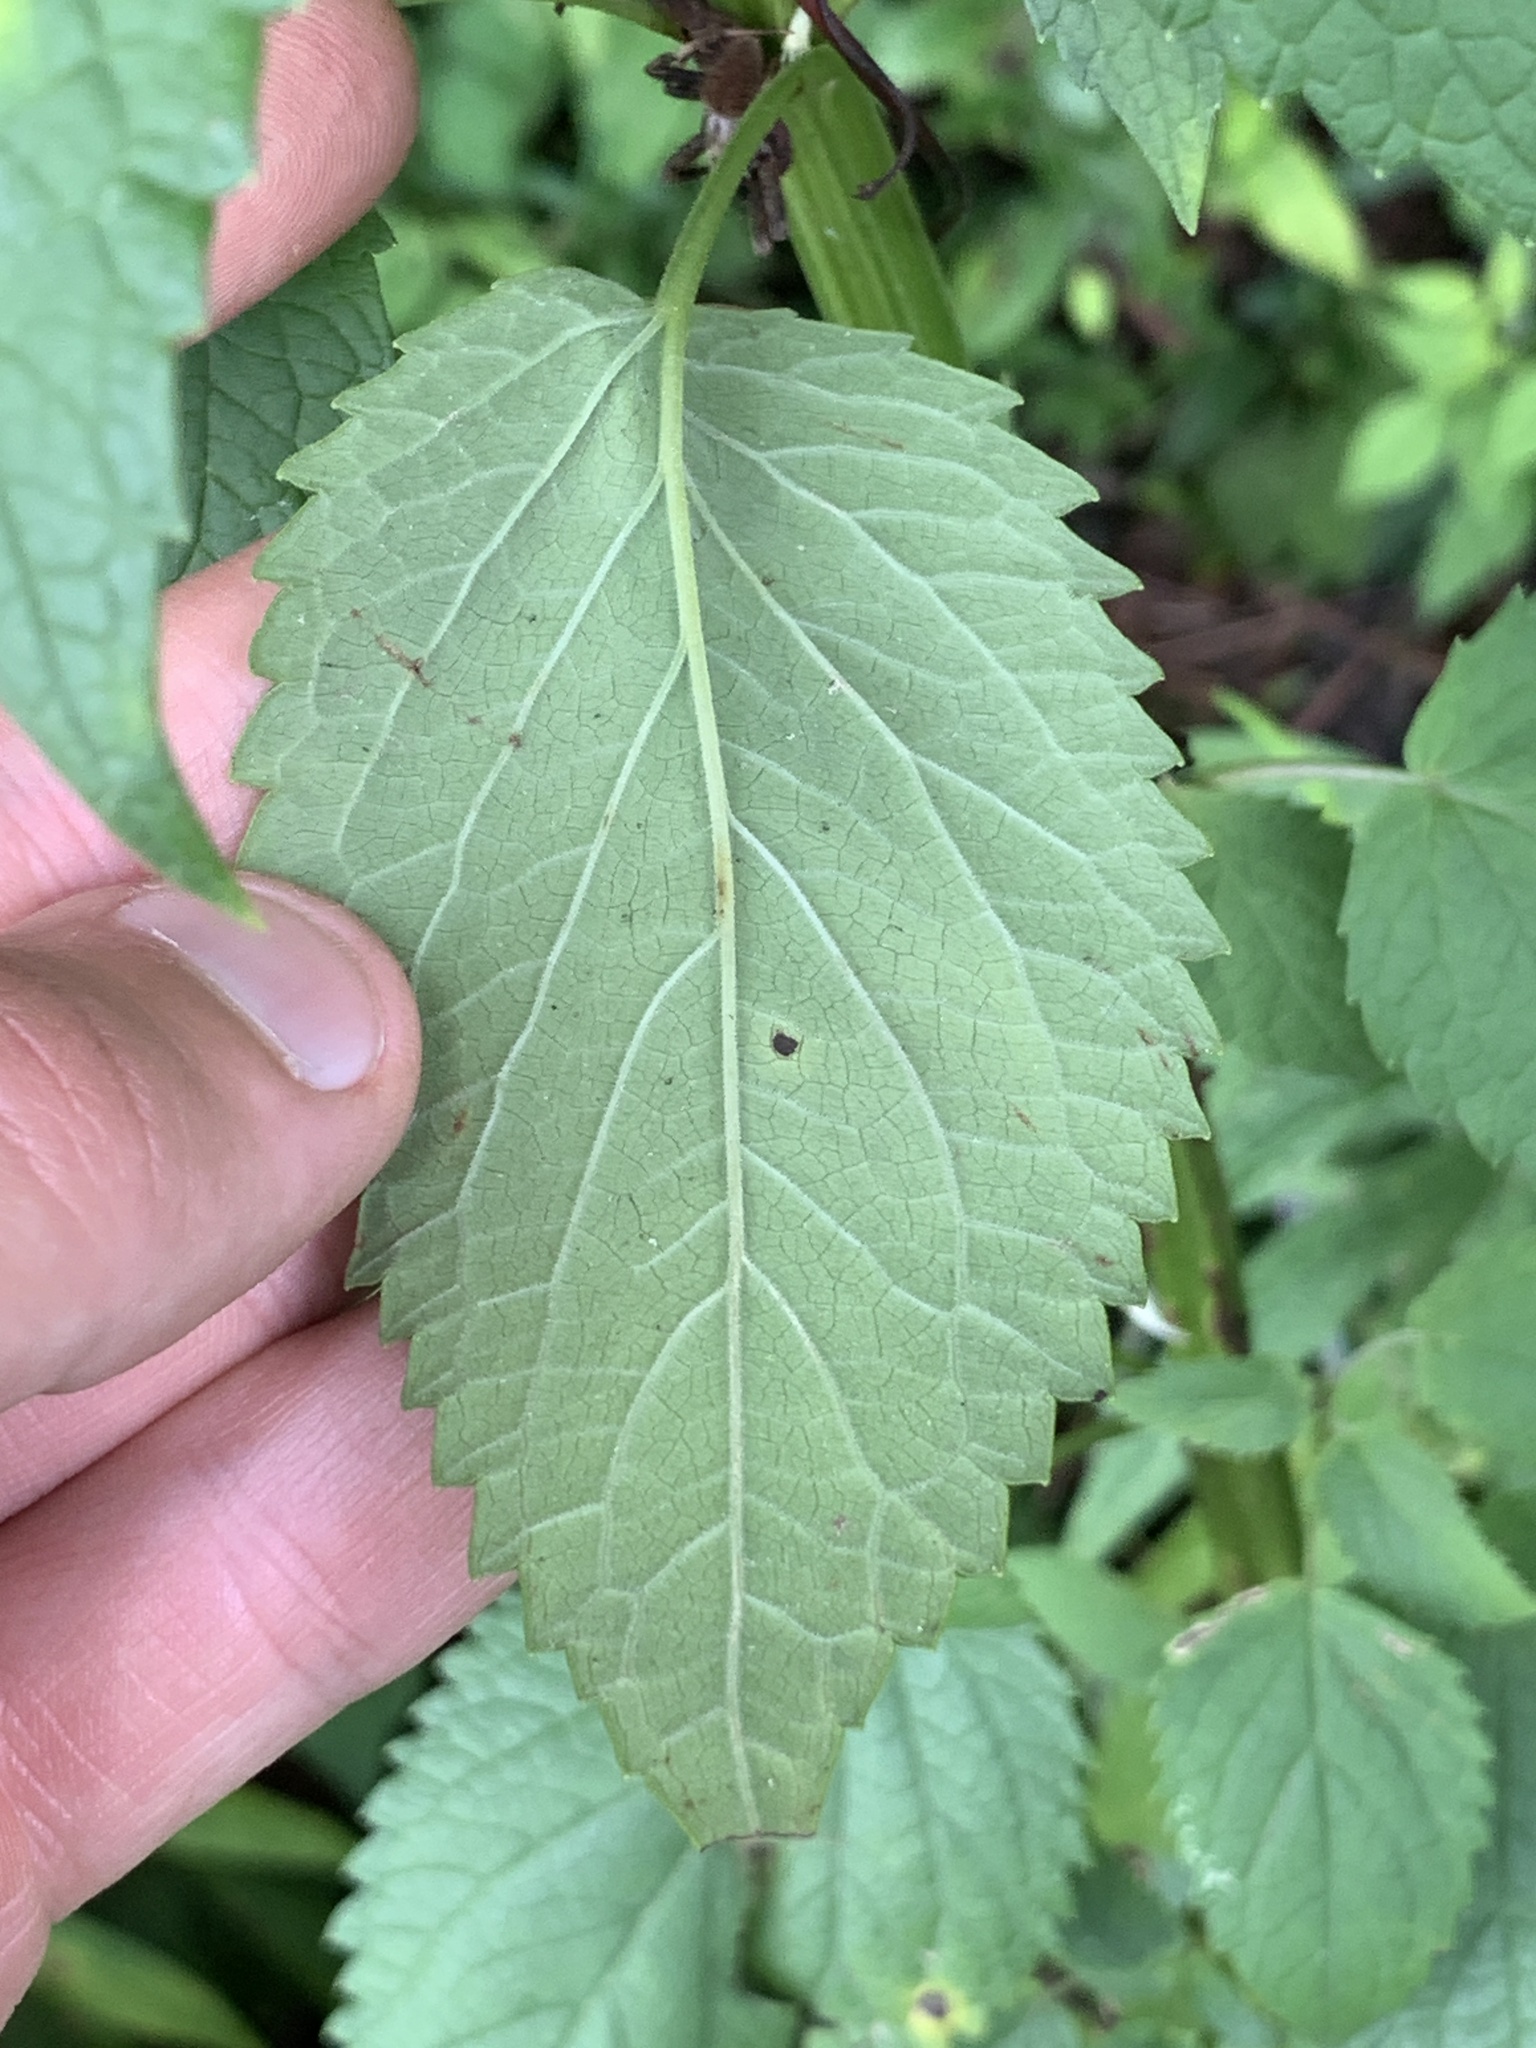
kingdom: Plantae
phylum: Tracheophyta
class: Magnoliopsida
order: Lamiales
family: Lamiaceae
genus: Agastache
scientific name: Agastache nepetoides
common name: Catnip giant hyssop
